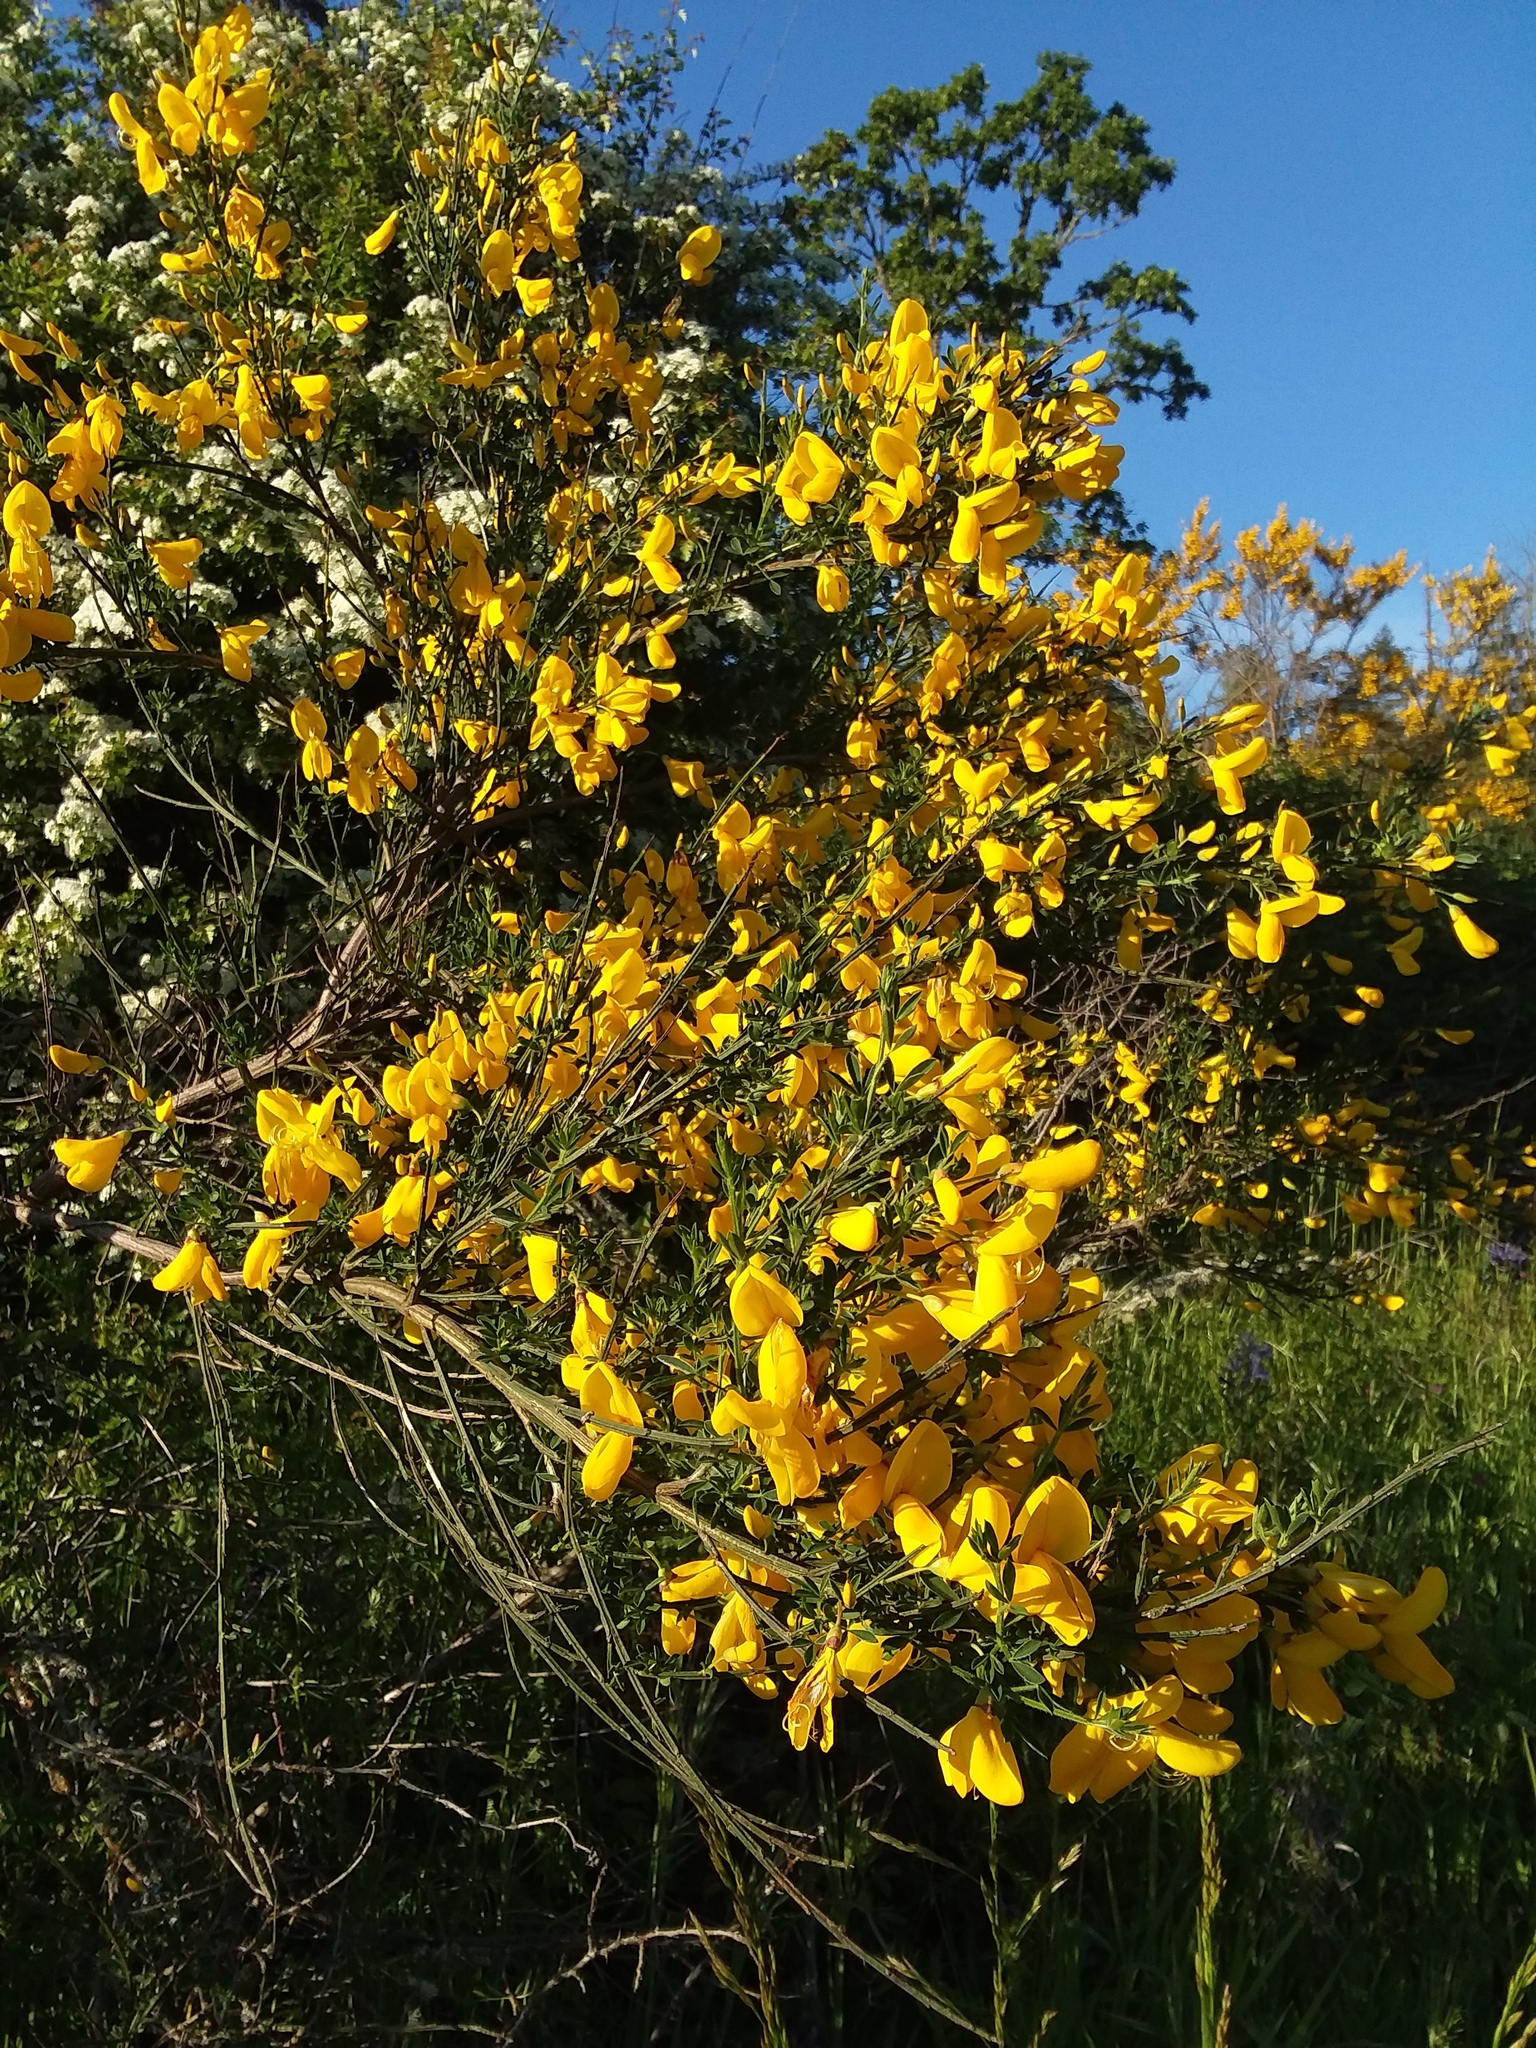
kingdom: Plantae
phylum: Tracheophyta
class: Magnoliopsida
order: Fabales
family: Fabaceae
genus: Cytisus
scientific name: Cytisus scoparius
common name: Scotch broom
